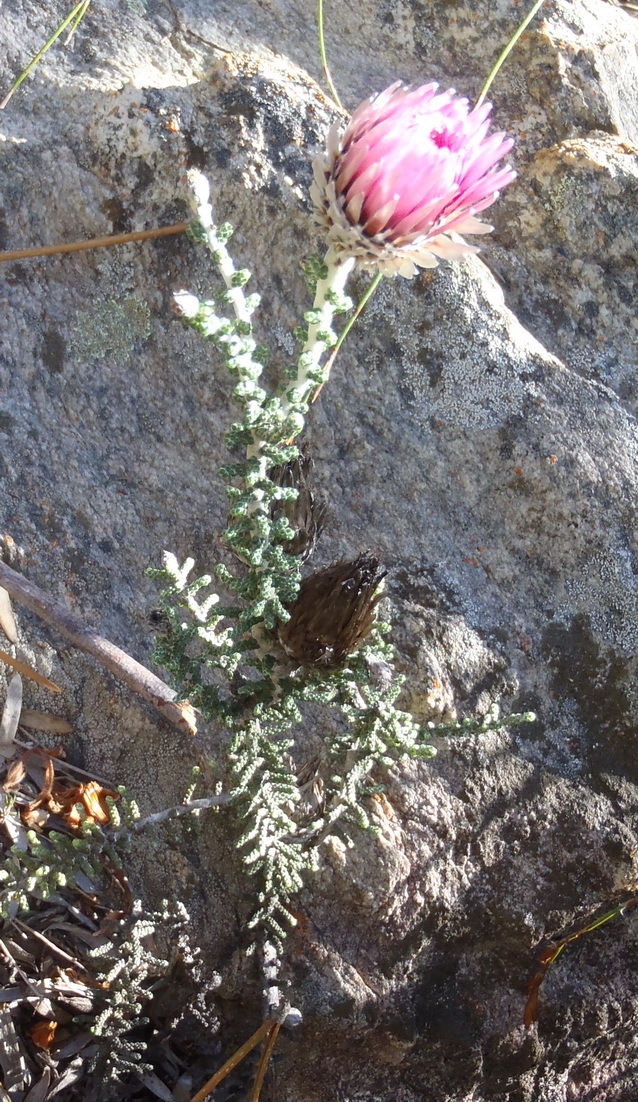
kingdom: Plantae
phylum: Tracheophyta
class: Magnoliopsida
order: Asterales
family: Asteraceae
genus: Phaenocoma
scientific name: Phaenocoma prolifera
